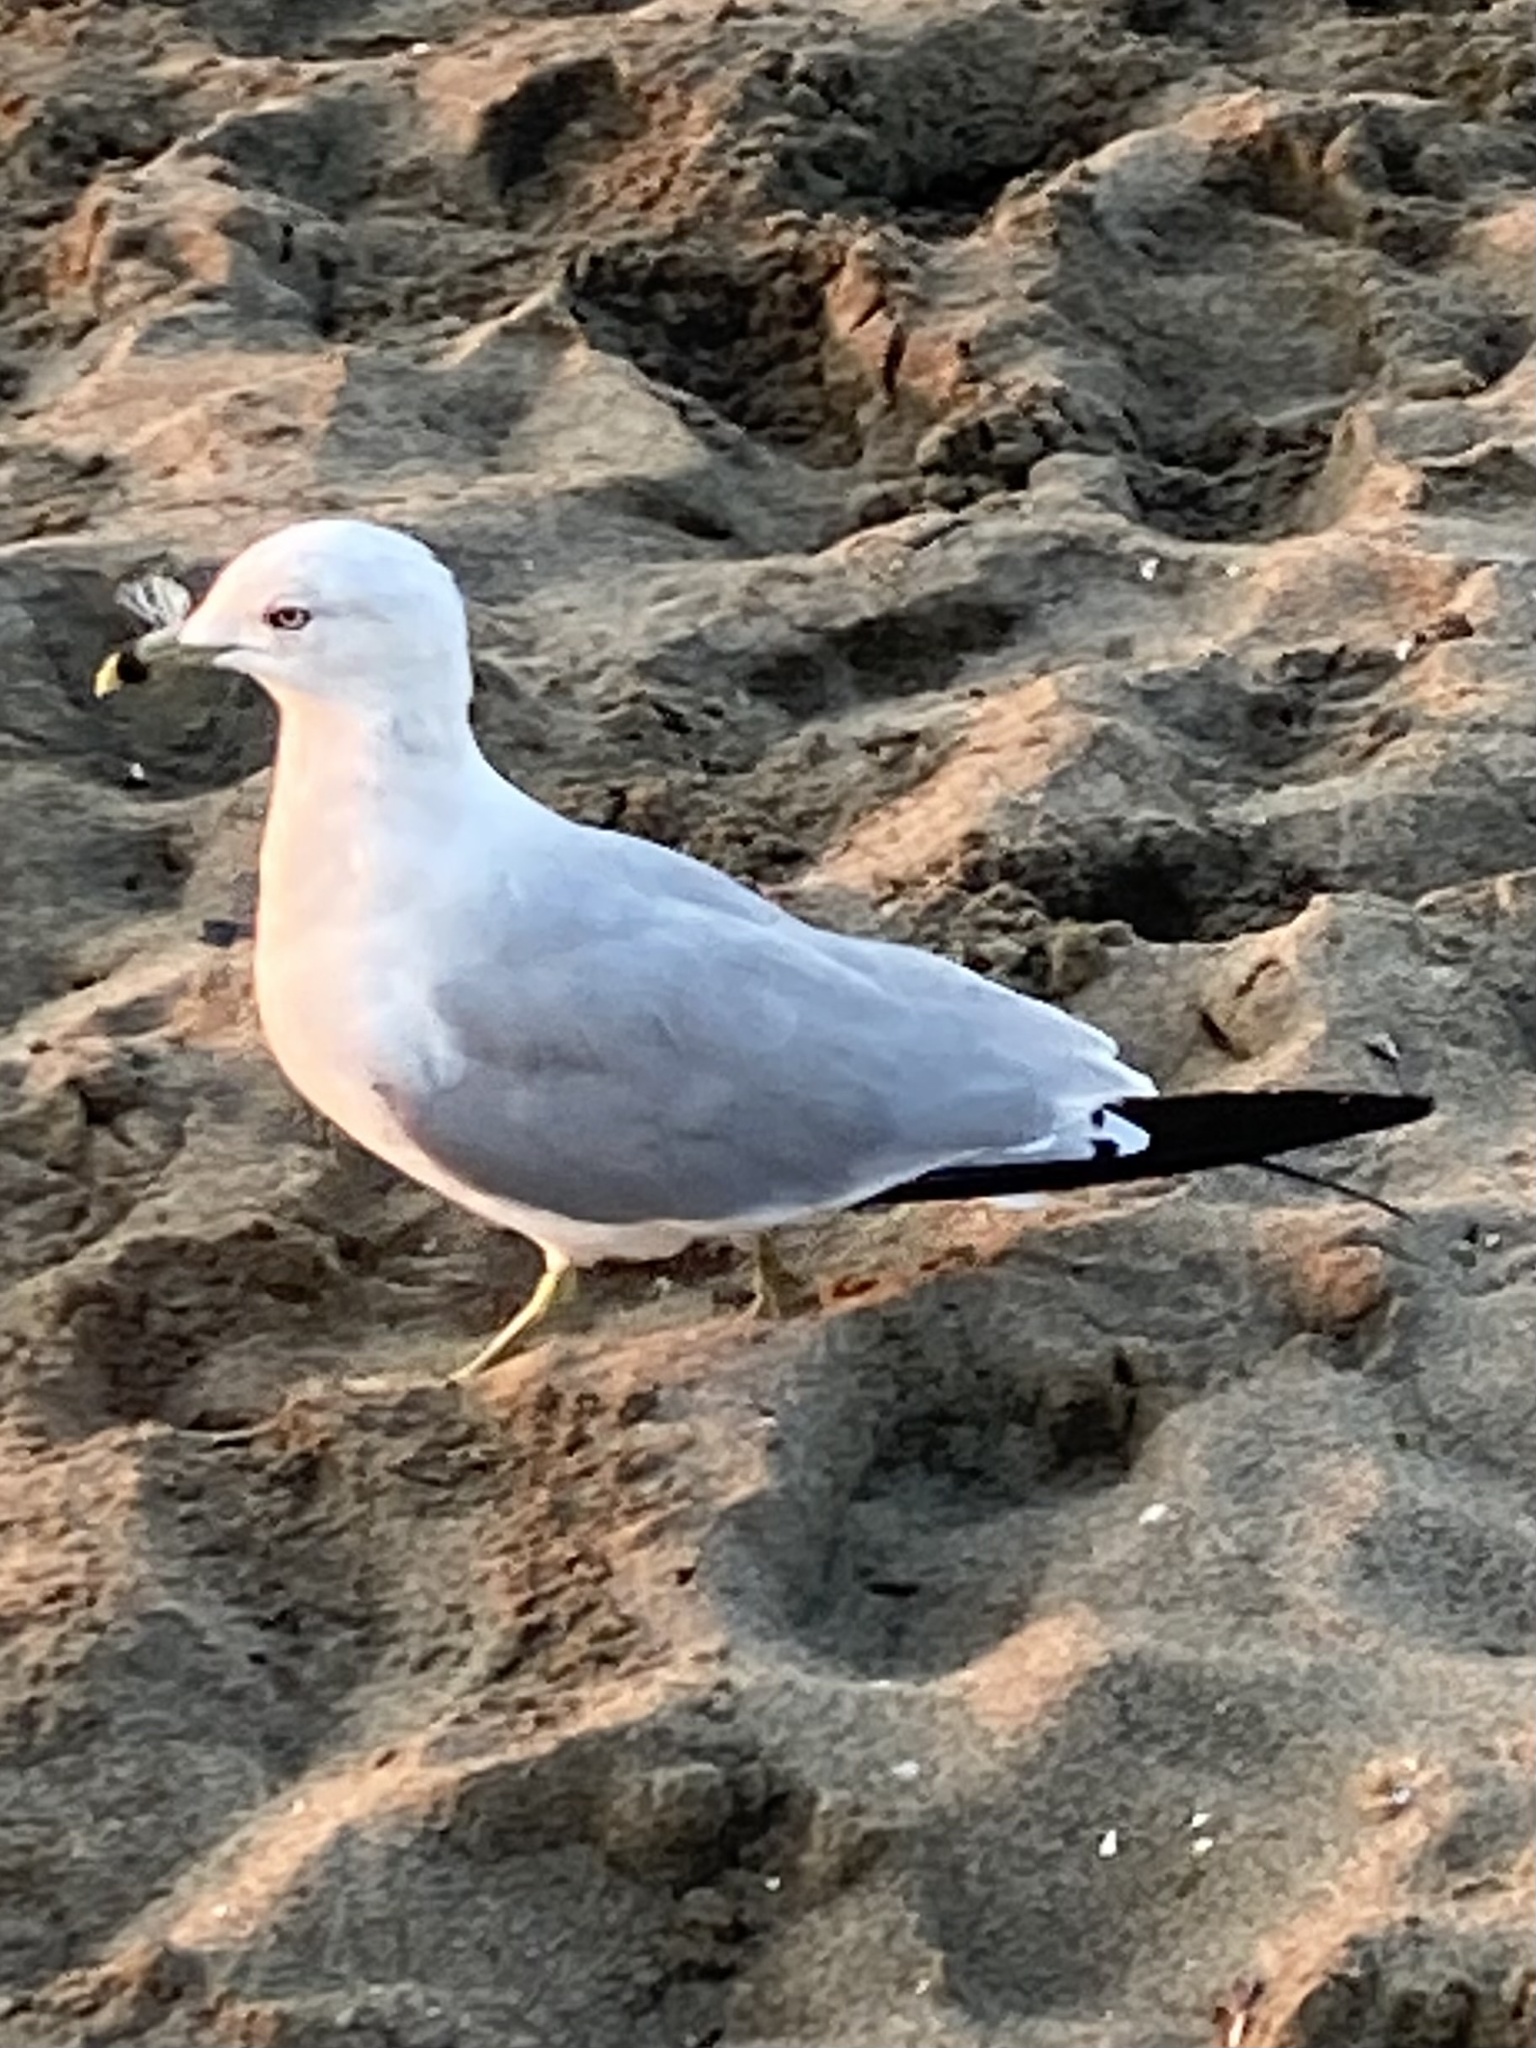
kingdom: Animalia
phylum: Chordata
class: Aves
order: Charadriiformes
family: Laridae
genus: Larus
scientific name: Larus delawarensis
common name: Ring-billed gull
